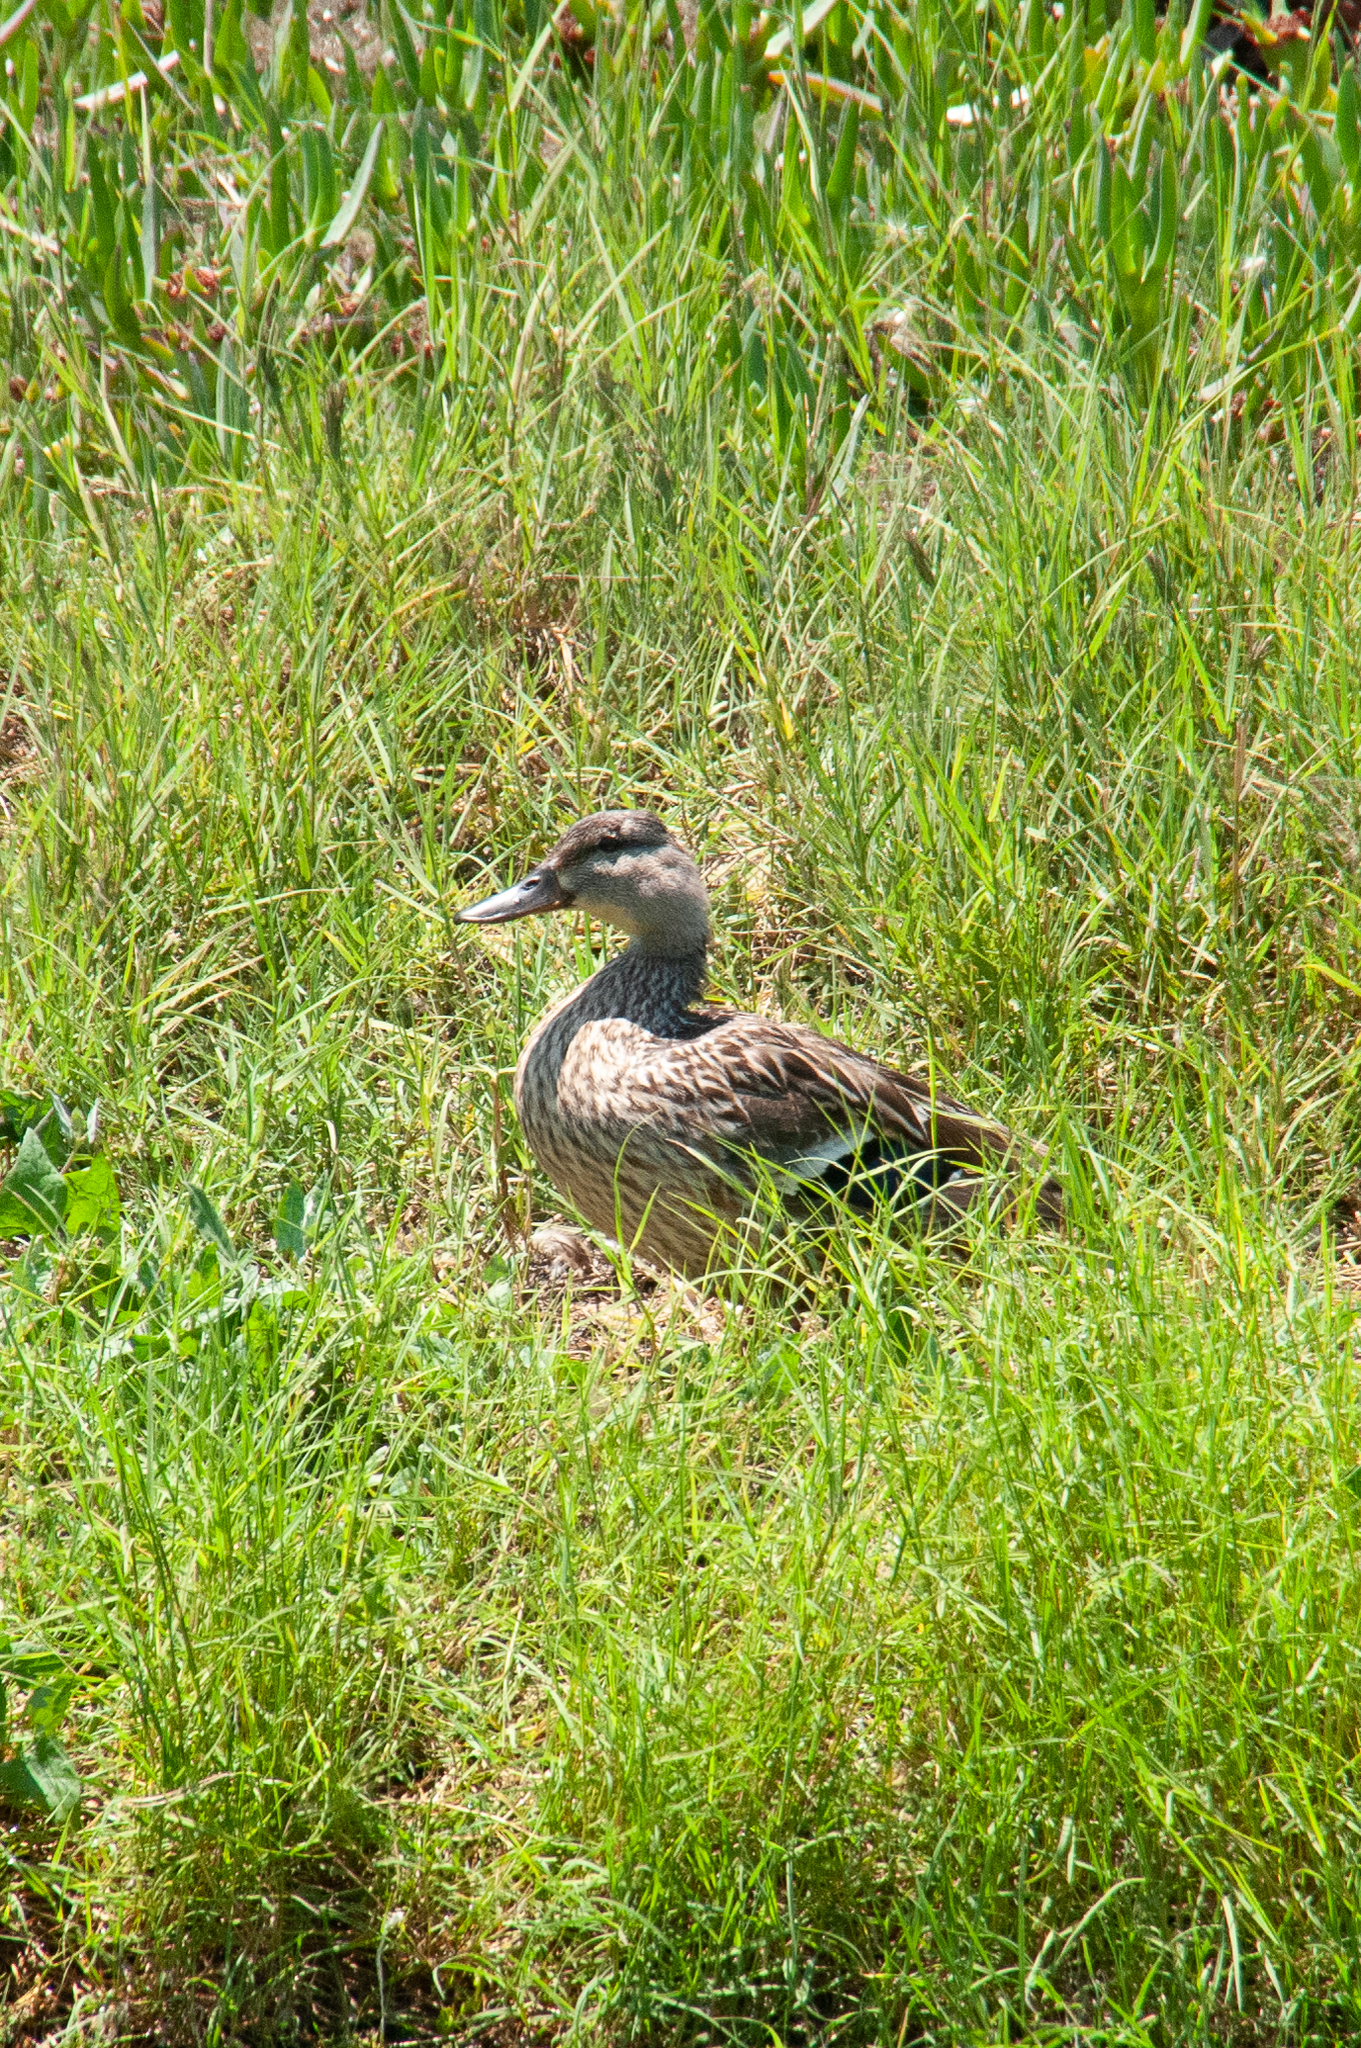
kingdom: Animalia
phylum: Chordata
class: Aves
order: Anseriformes
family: Anatidae
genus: Anas
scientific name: Anas platyrhynchos
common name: Mallard
